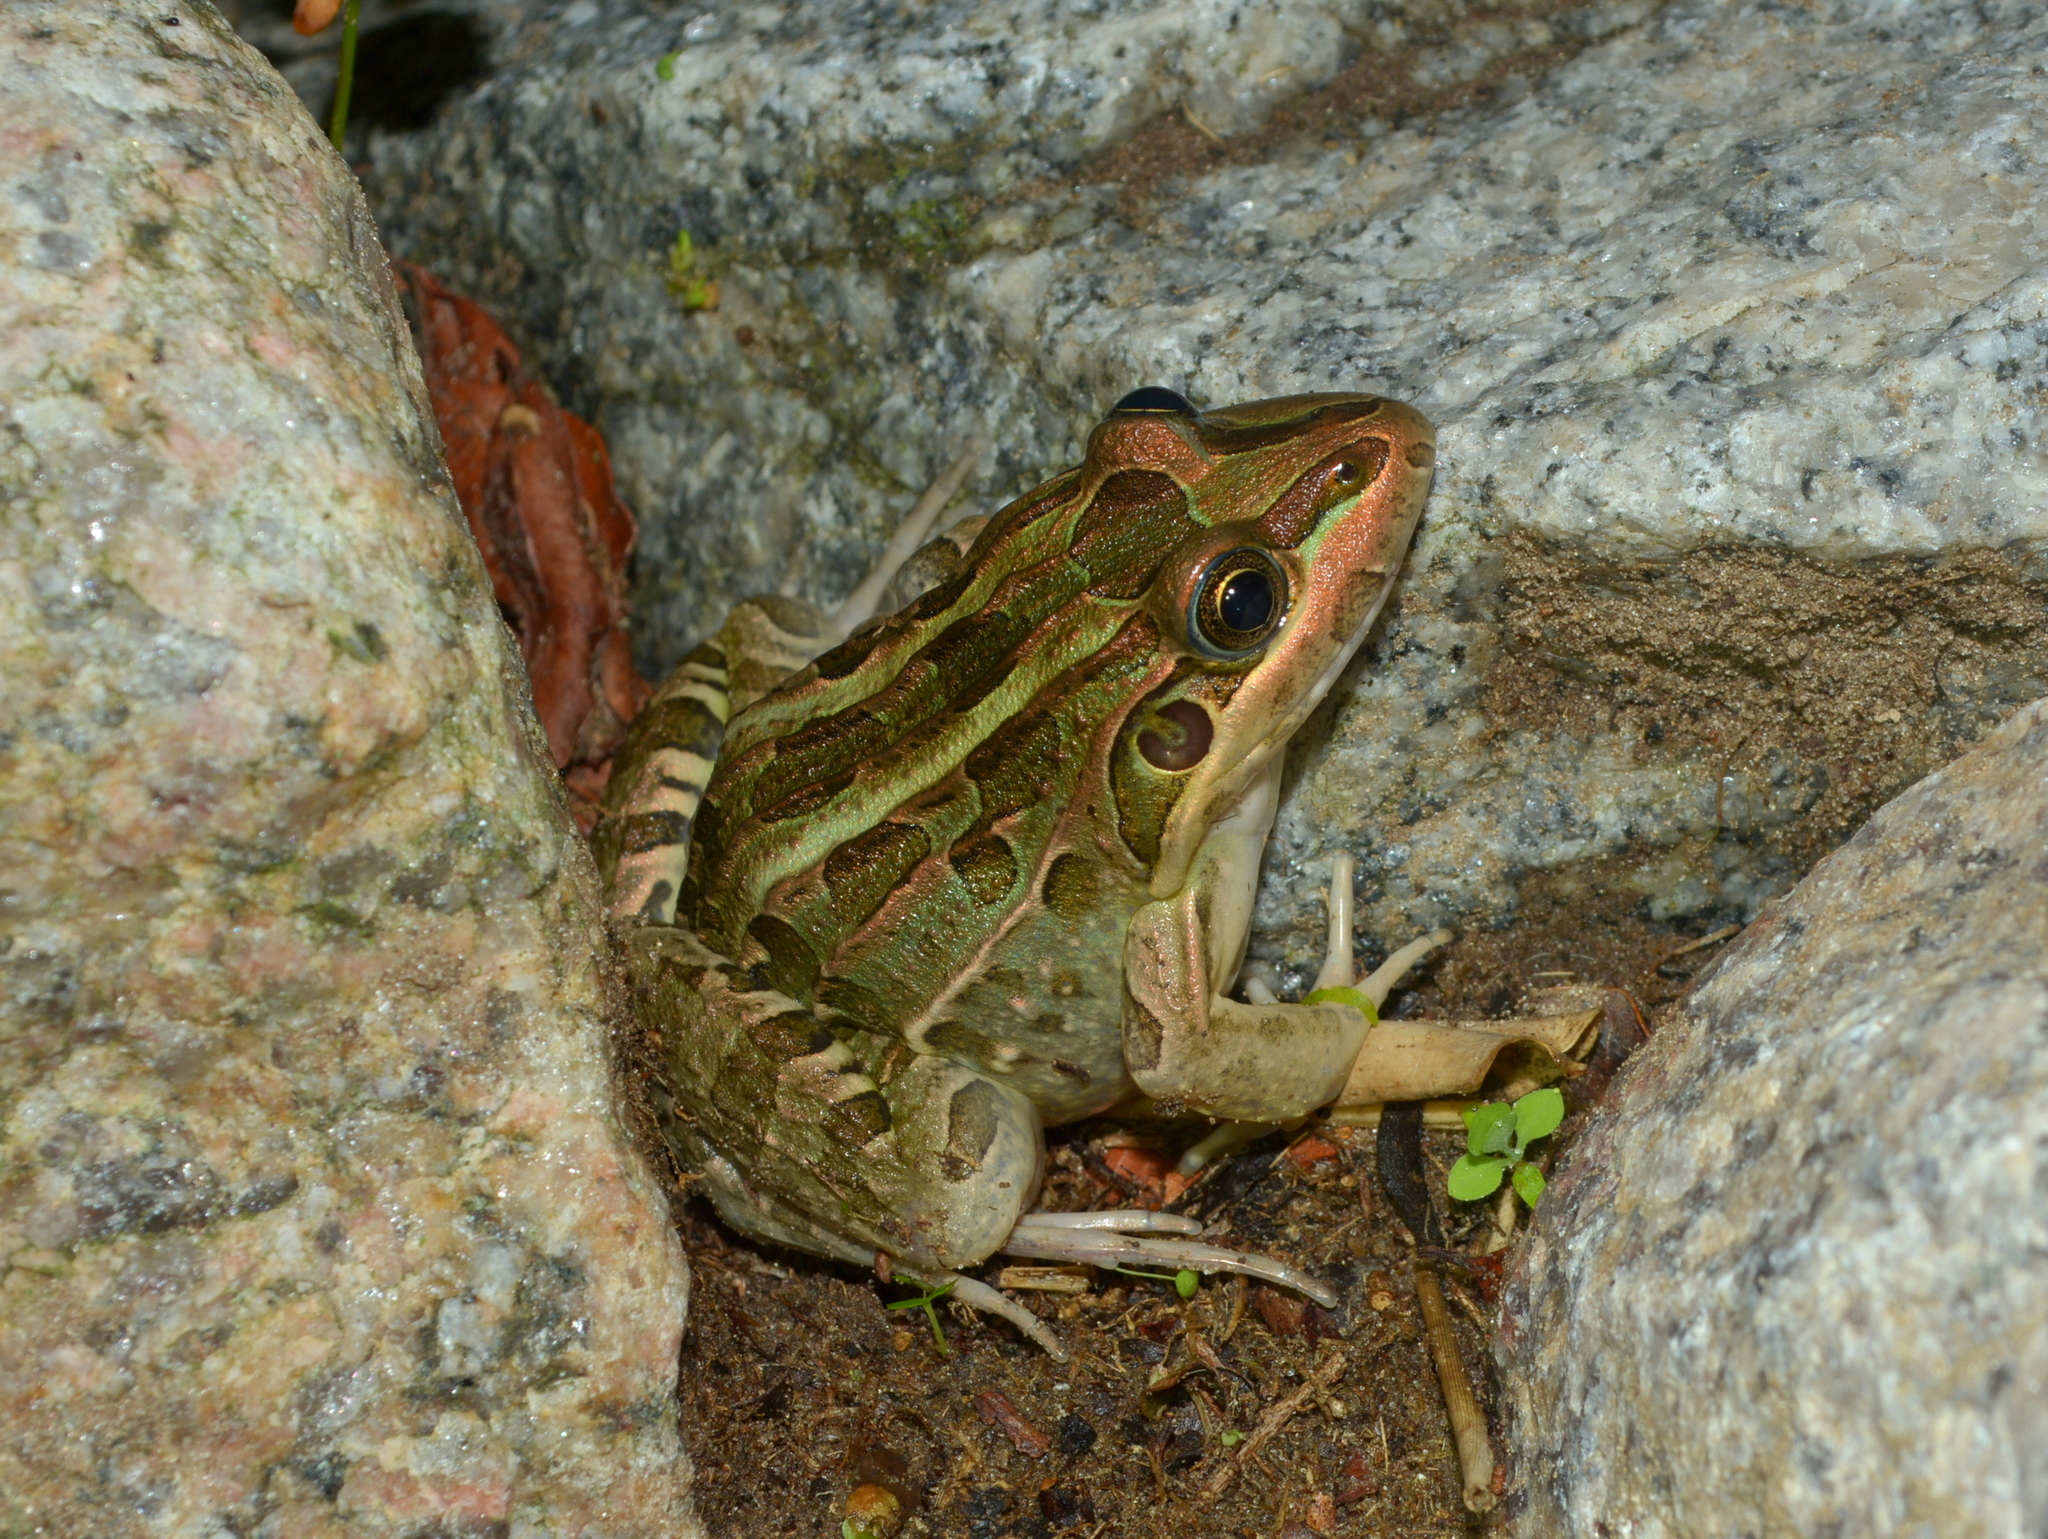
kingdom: Animalia
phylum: Chordata
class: Amphibia
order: Anura
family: Leptodactylidae
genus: Leptodactylus
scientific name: Leptodactylus luctator
